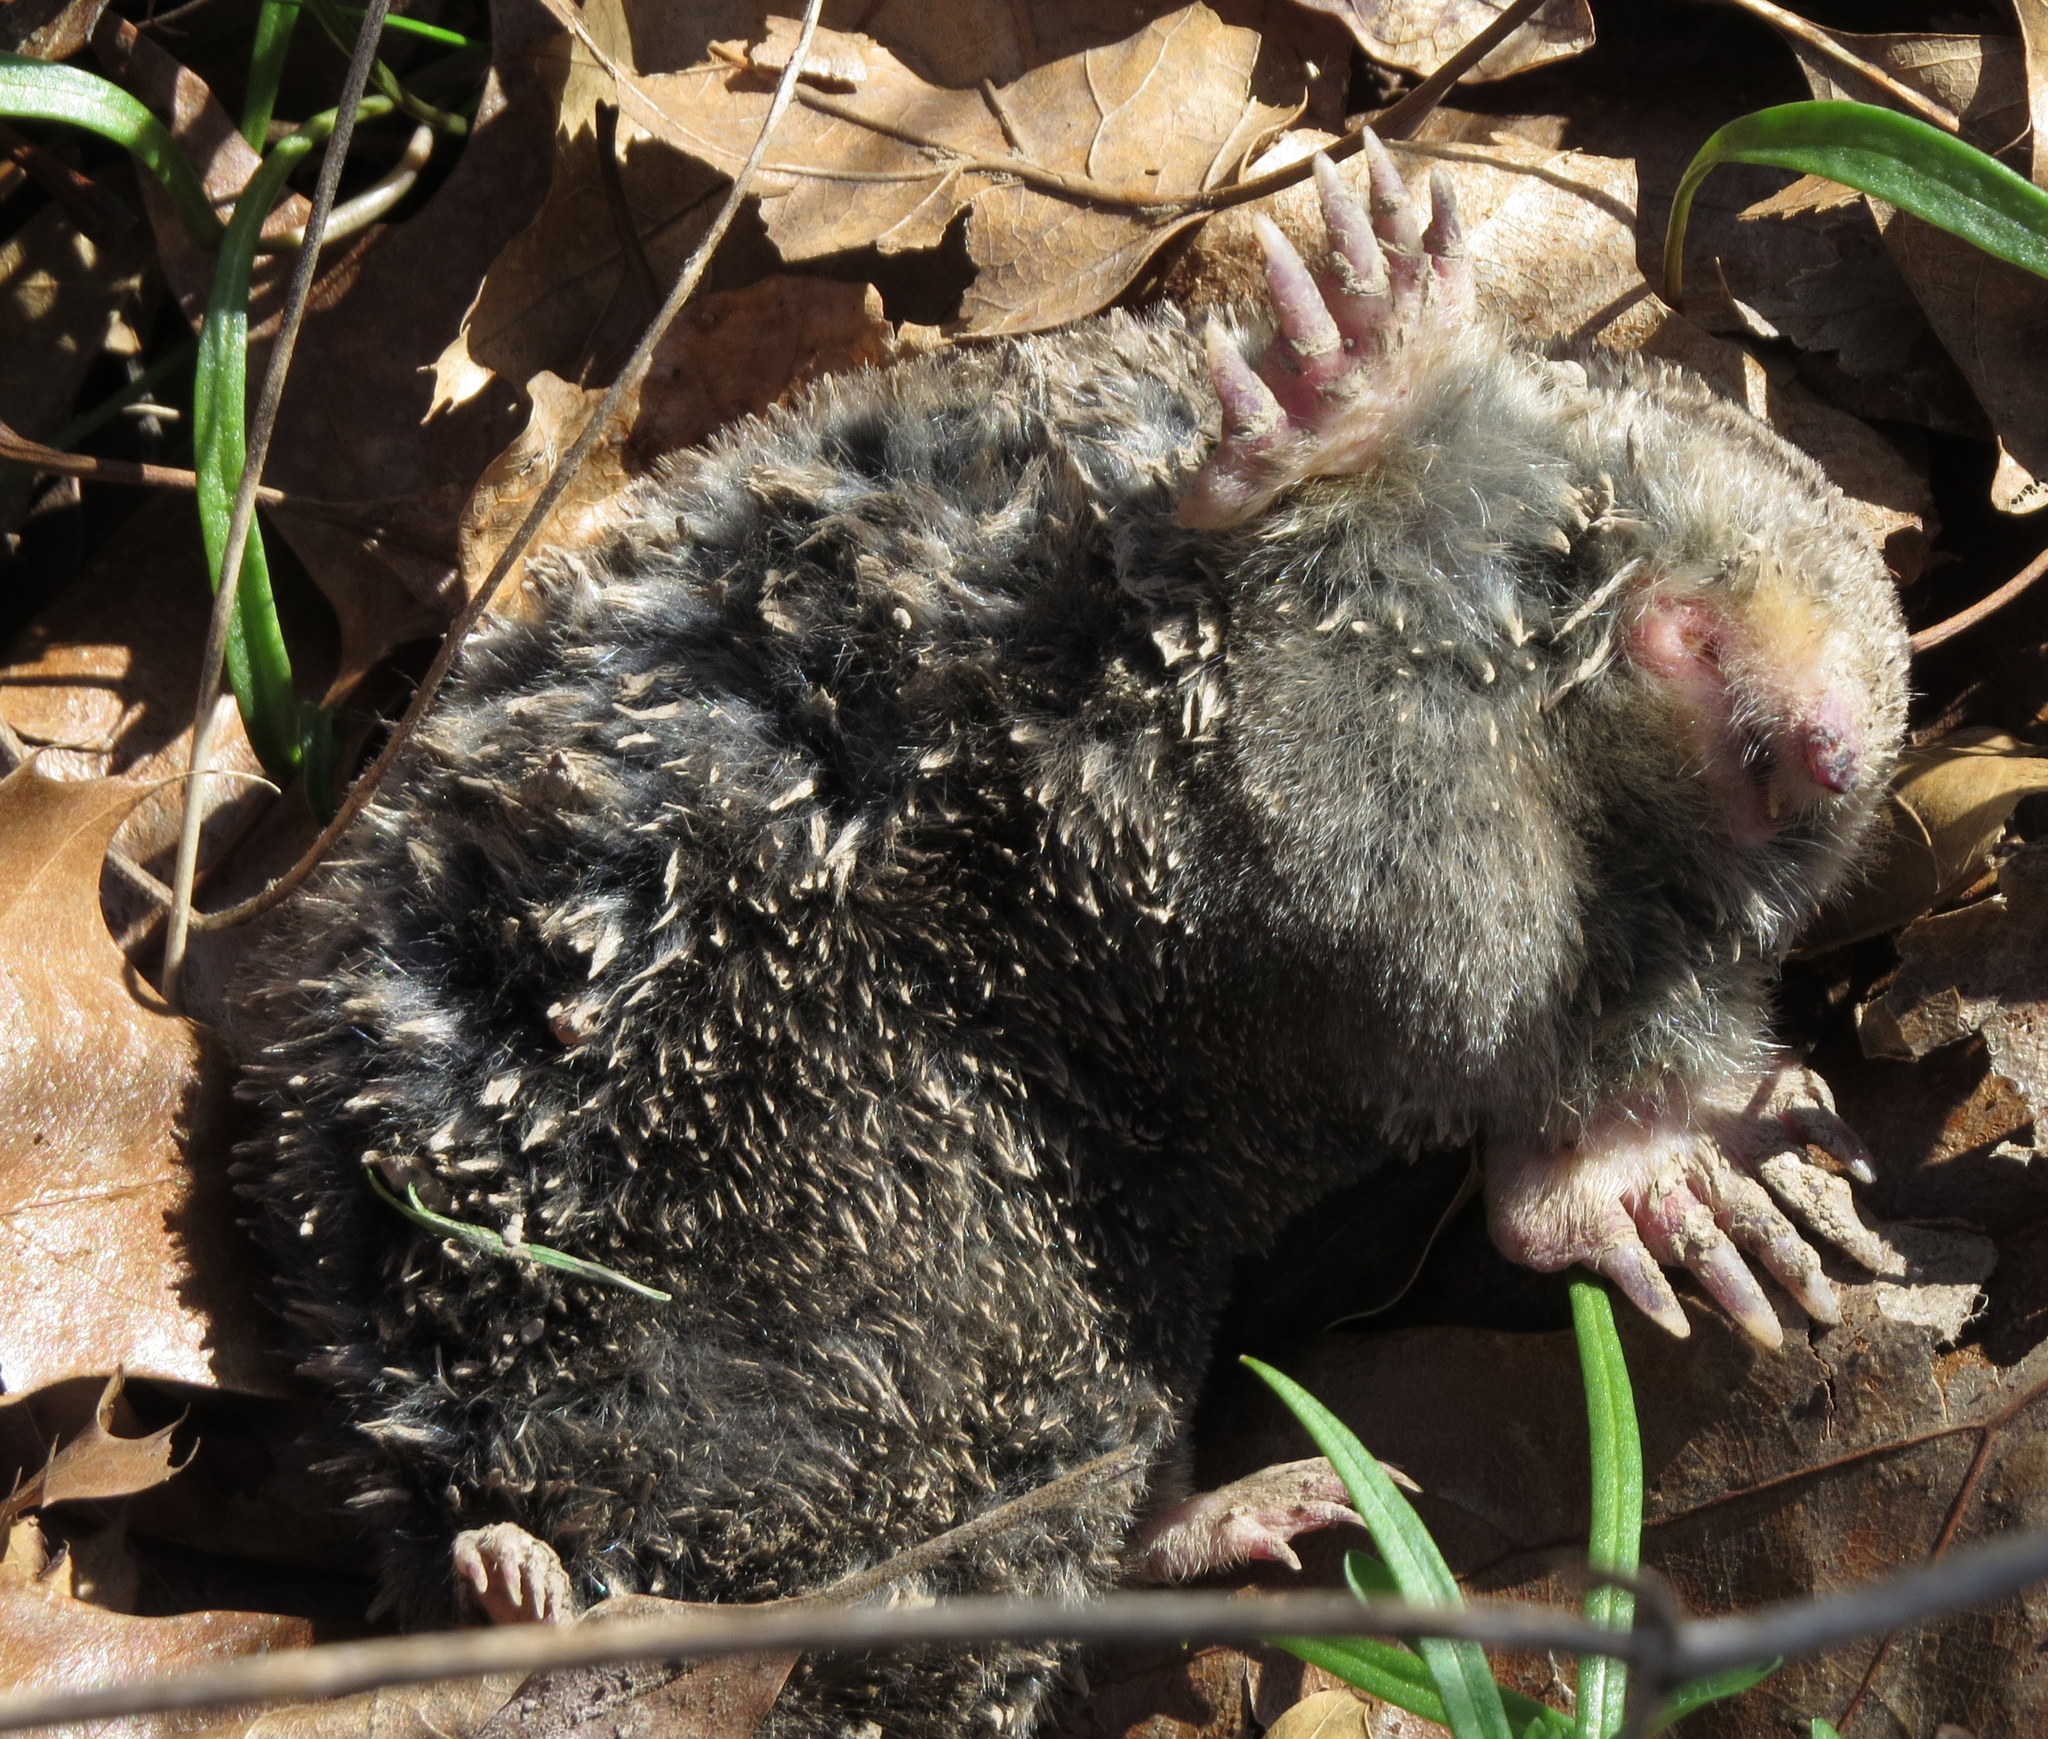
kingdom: Animalia
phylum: Chordata
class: Mammalia
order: Soricomorpha
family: Talpidae
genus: Scalopus
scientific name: Scalopus aquaticus
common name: Eastern mole
